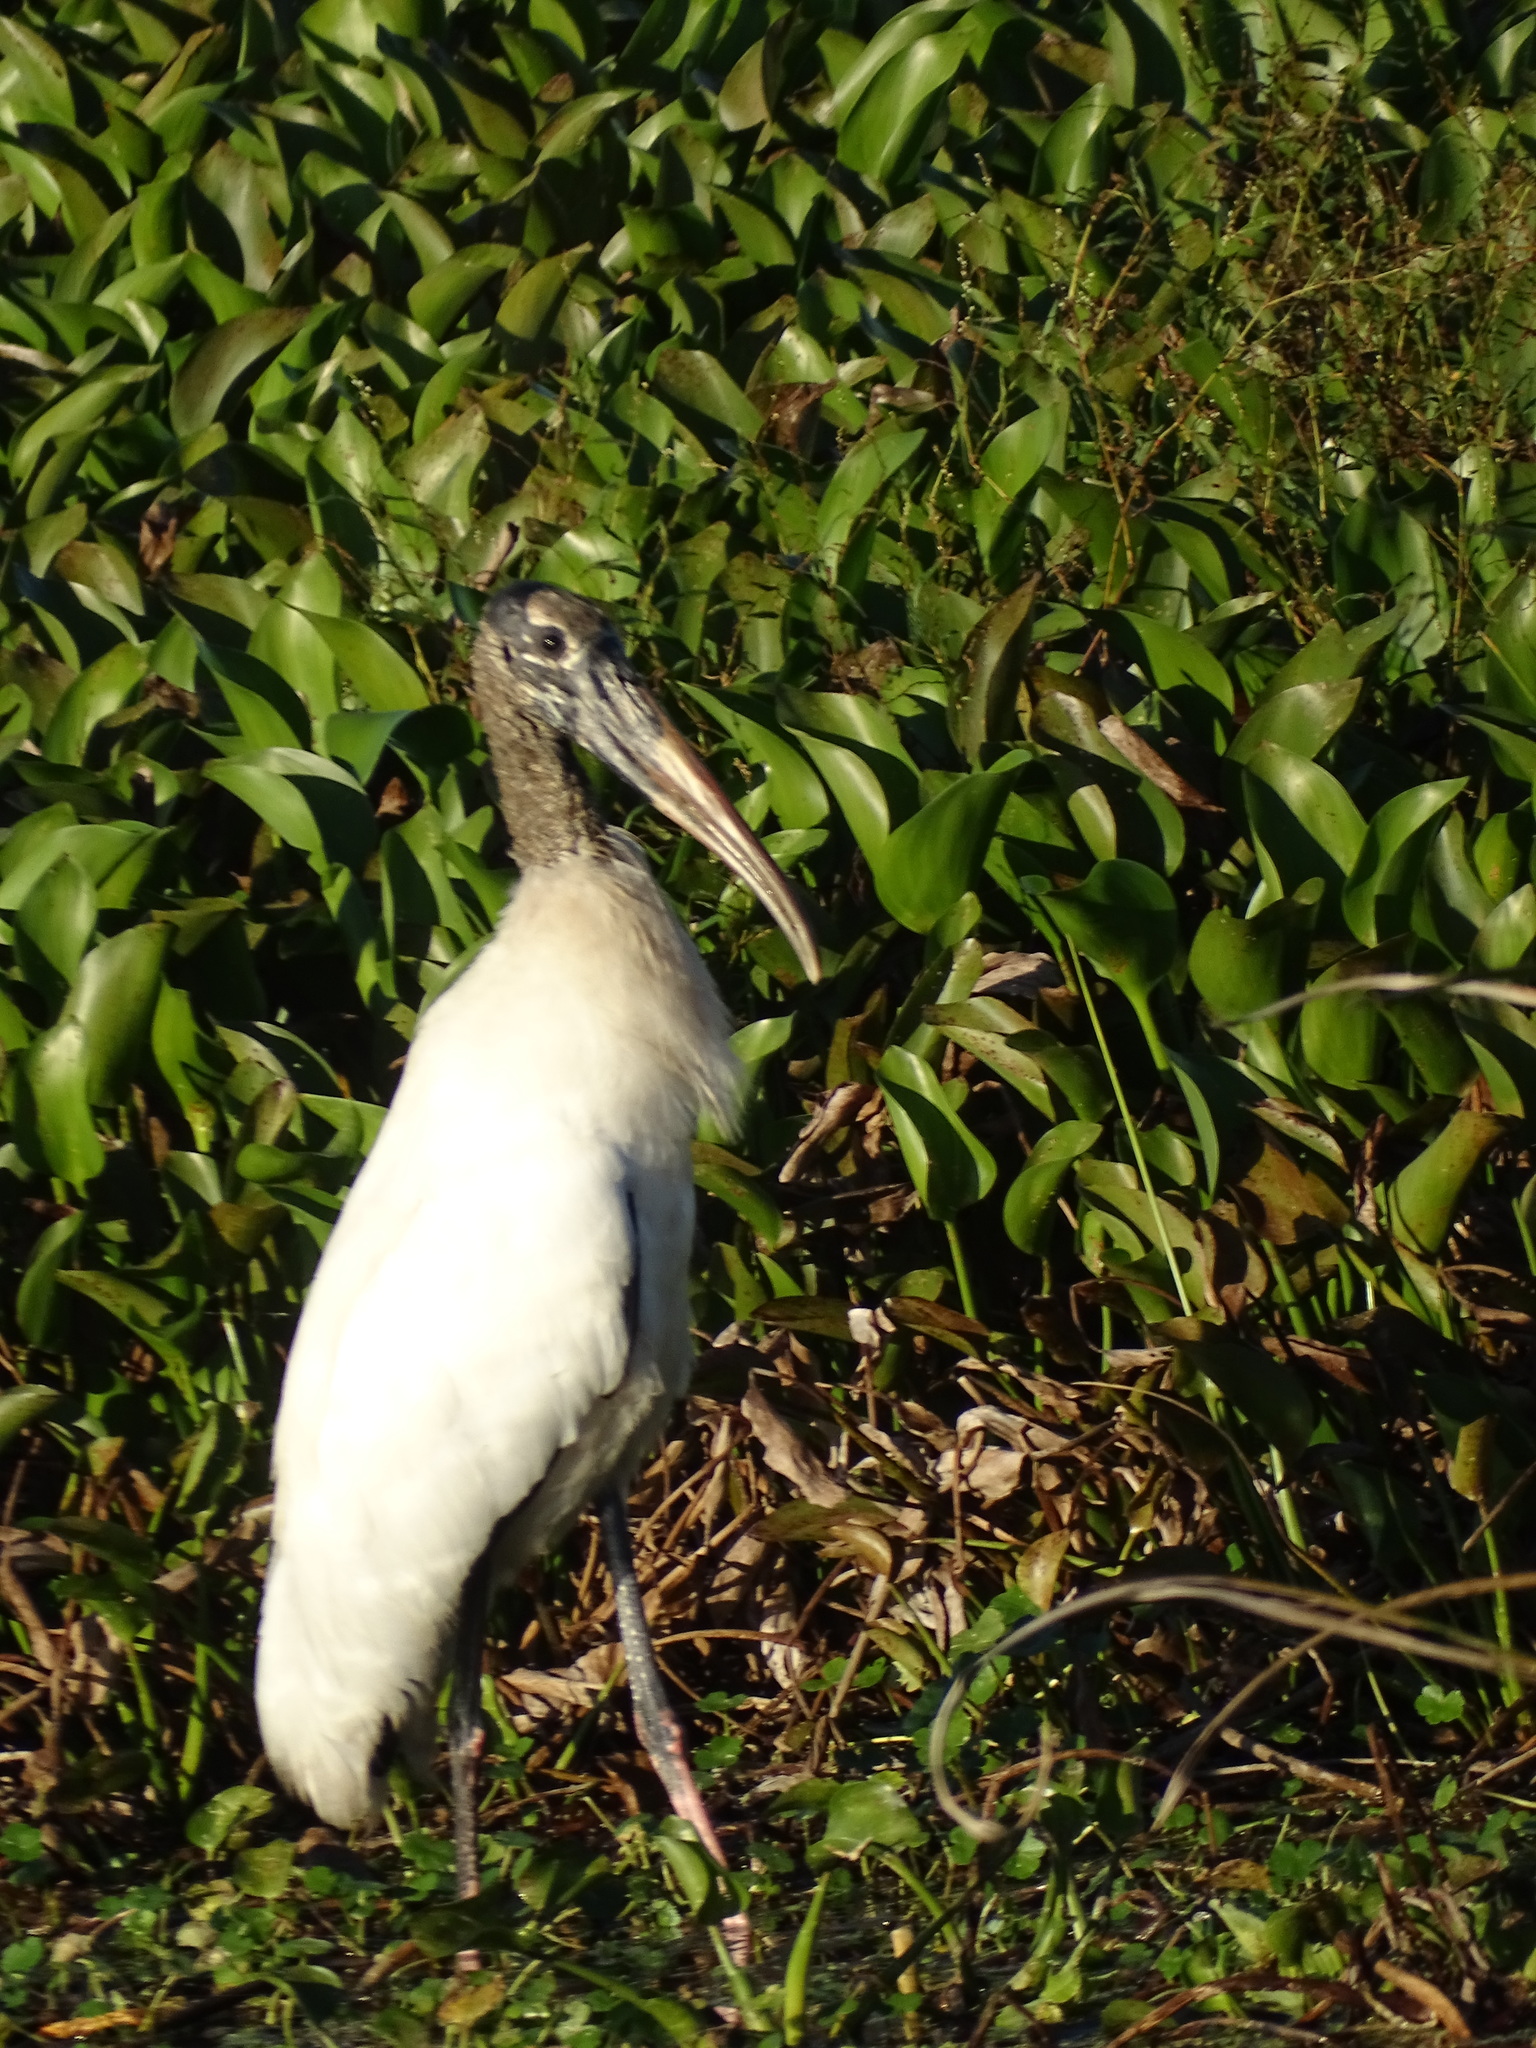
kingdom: Animalia
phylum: Chordata
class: Aves
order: Ciconiiformes
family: Ciconiidae
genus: Mycteria
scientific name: Mycteria americana
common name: Wood stork
